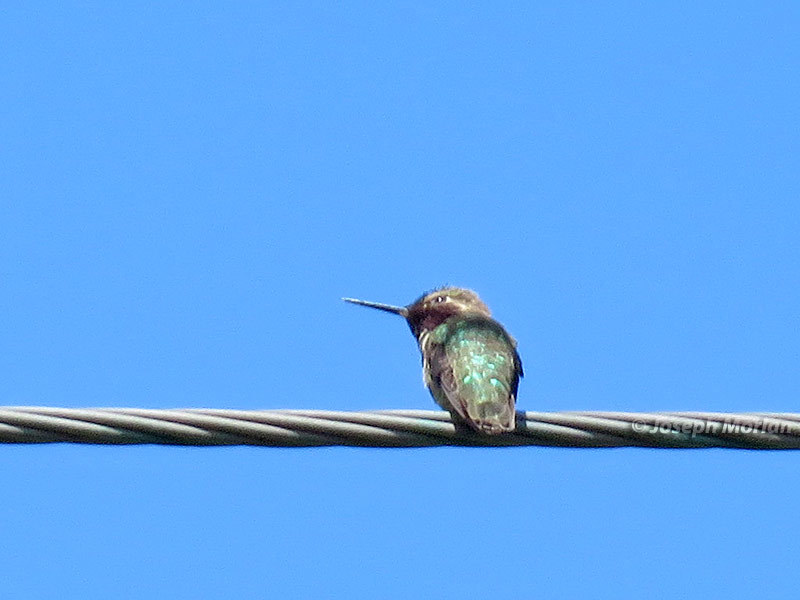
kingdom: Animalia
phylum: Chordata
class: Aves
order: Apodiformes
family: Trochilidae
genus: Calypte
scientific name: Calypte anna
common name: Anna's hummingbird
